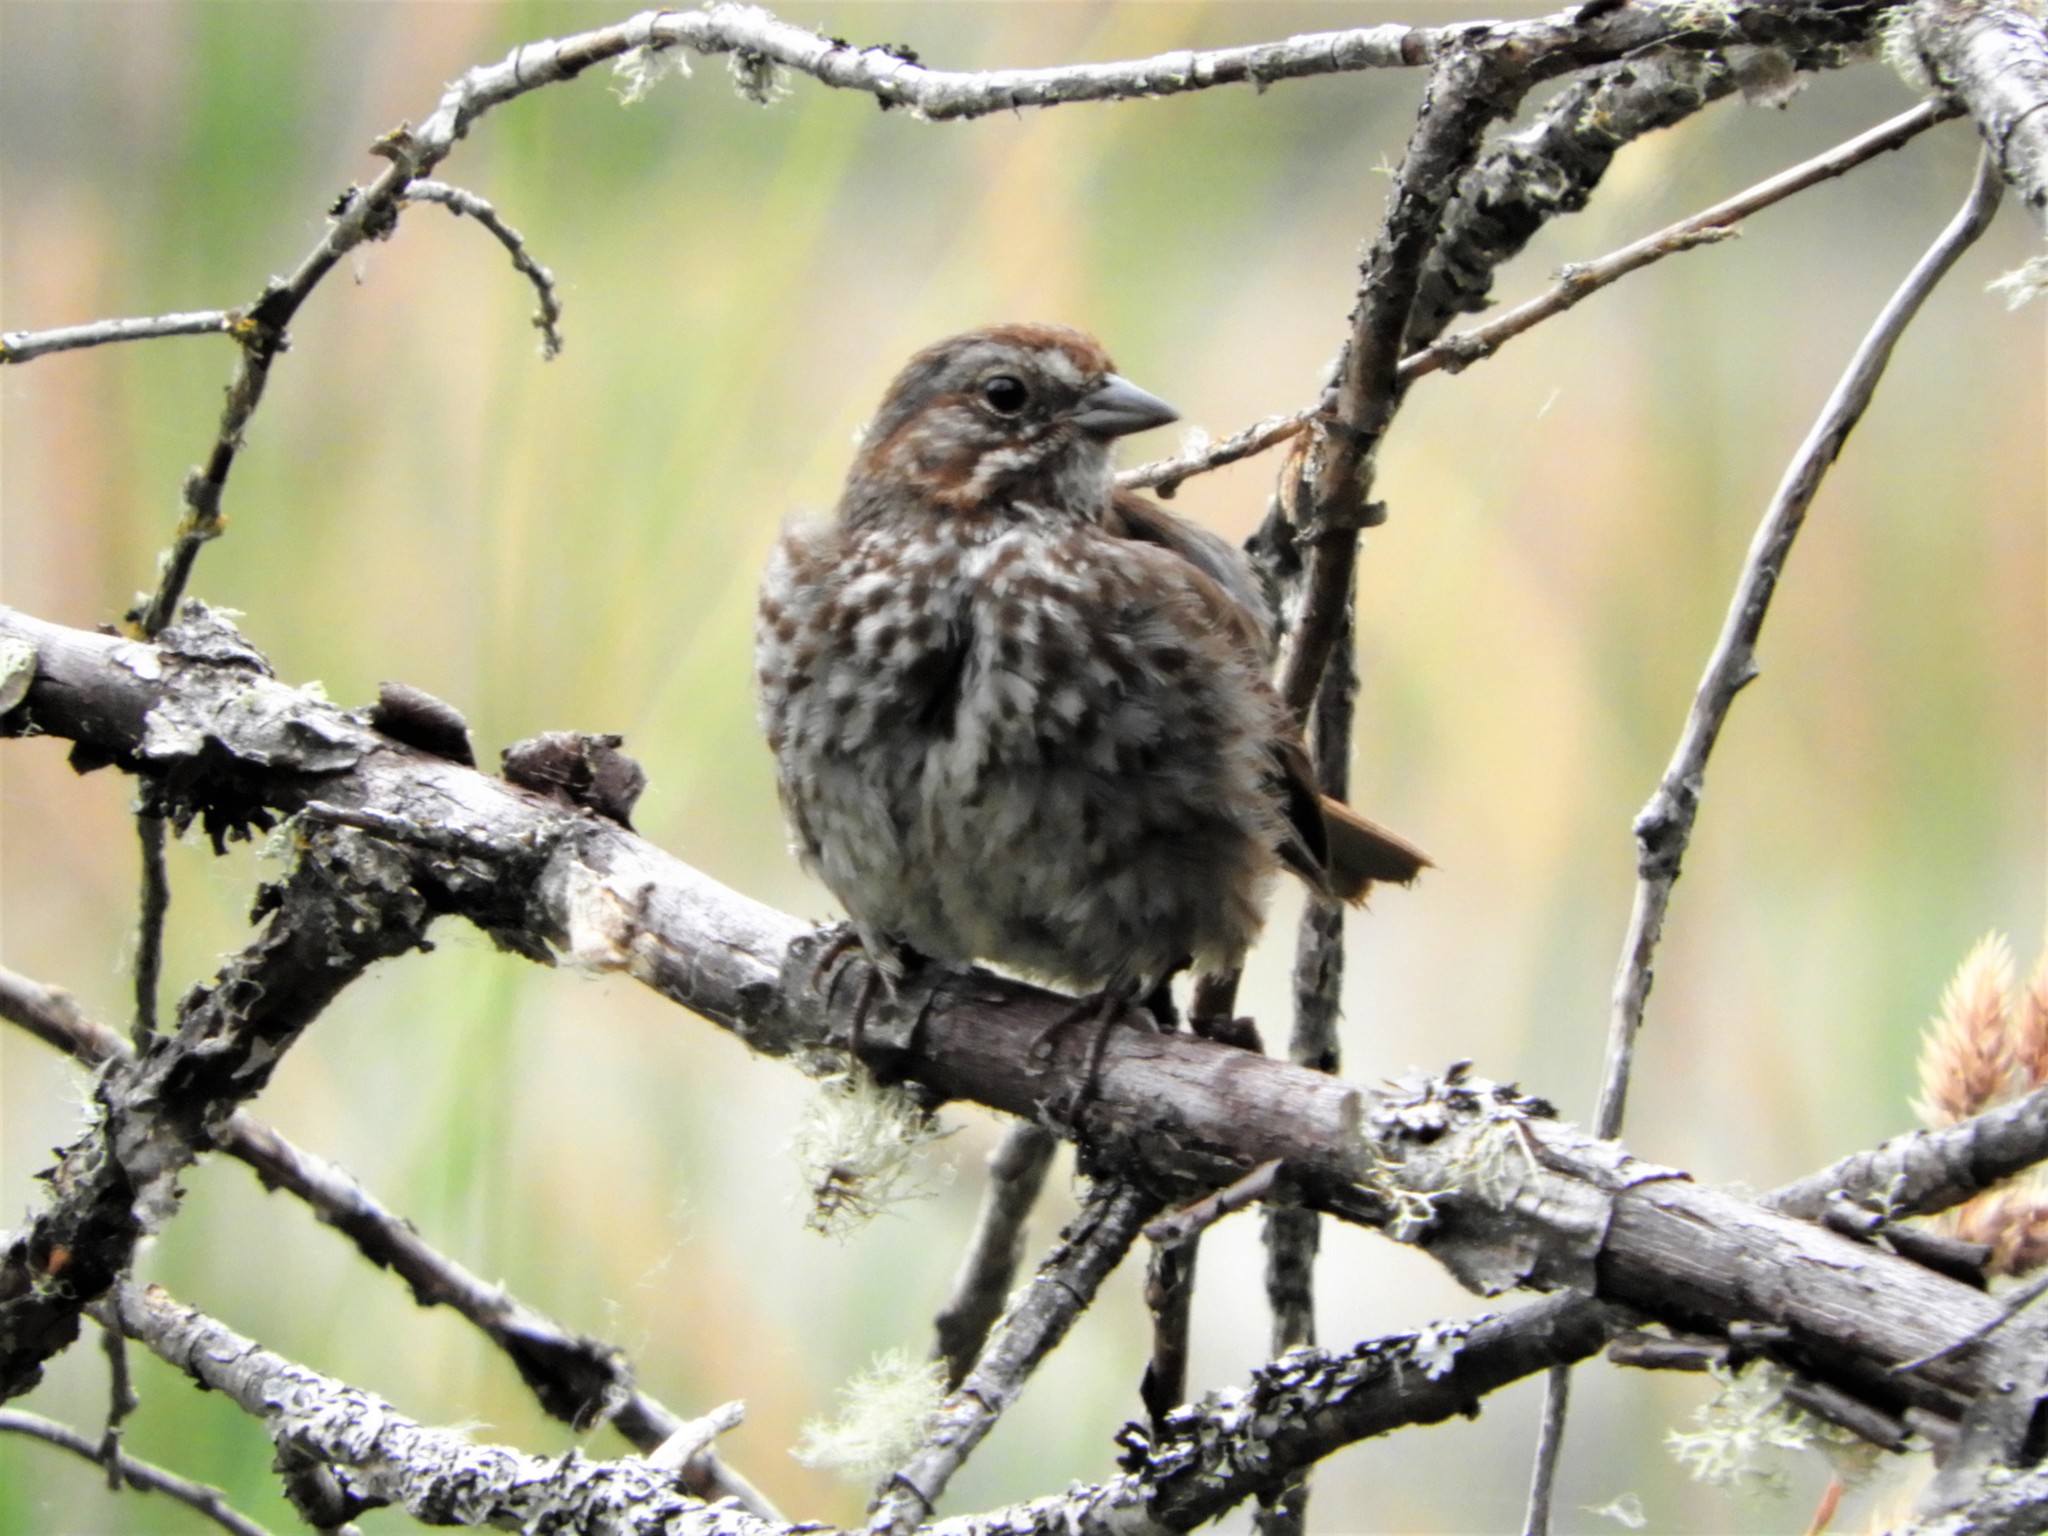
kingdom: Animalia
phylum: Chordata
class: Aves
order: Passeriformes
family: Passerellidae
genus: Melospiza
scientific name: Melospiza melodia
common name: Song sparrow
